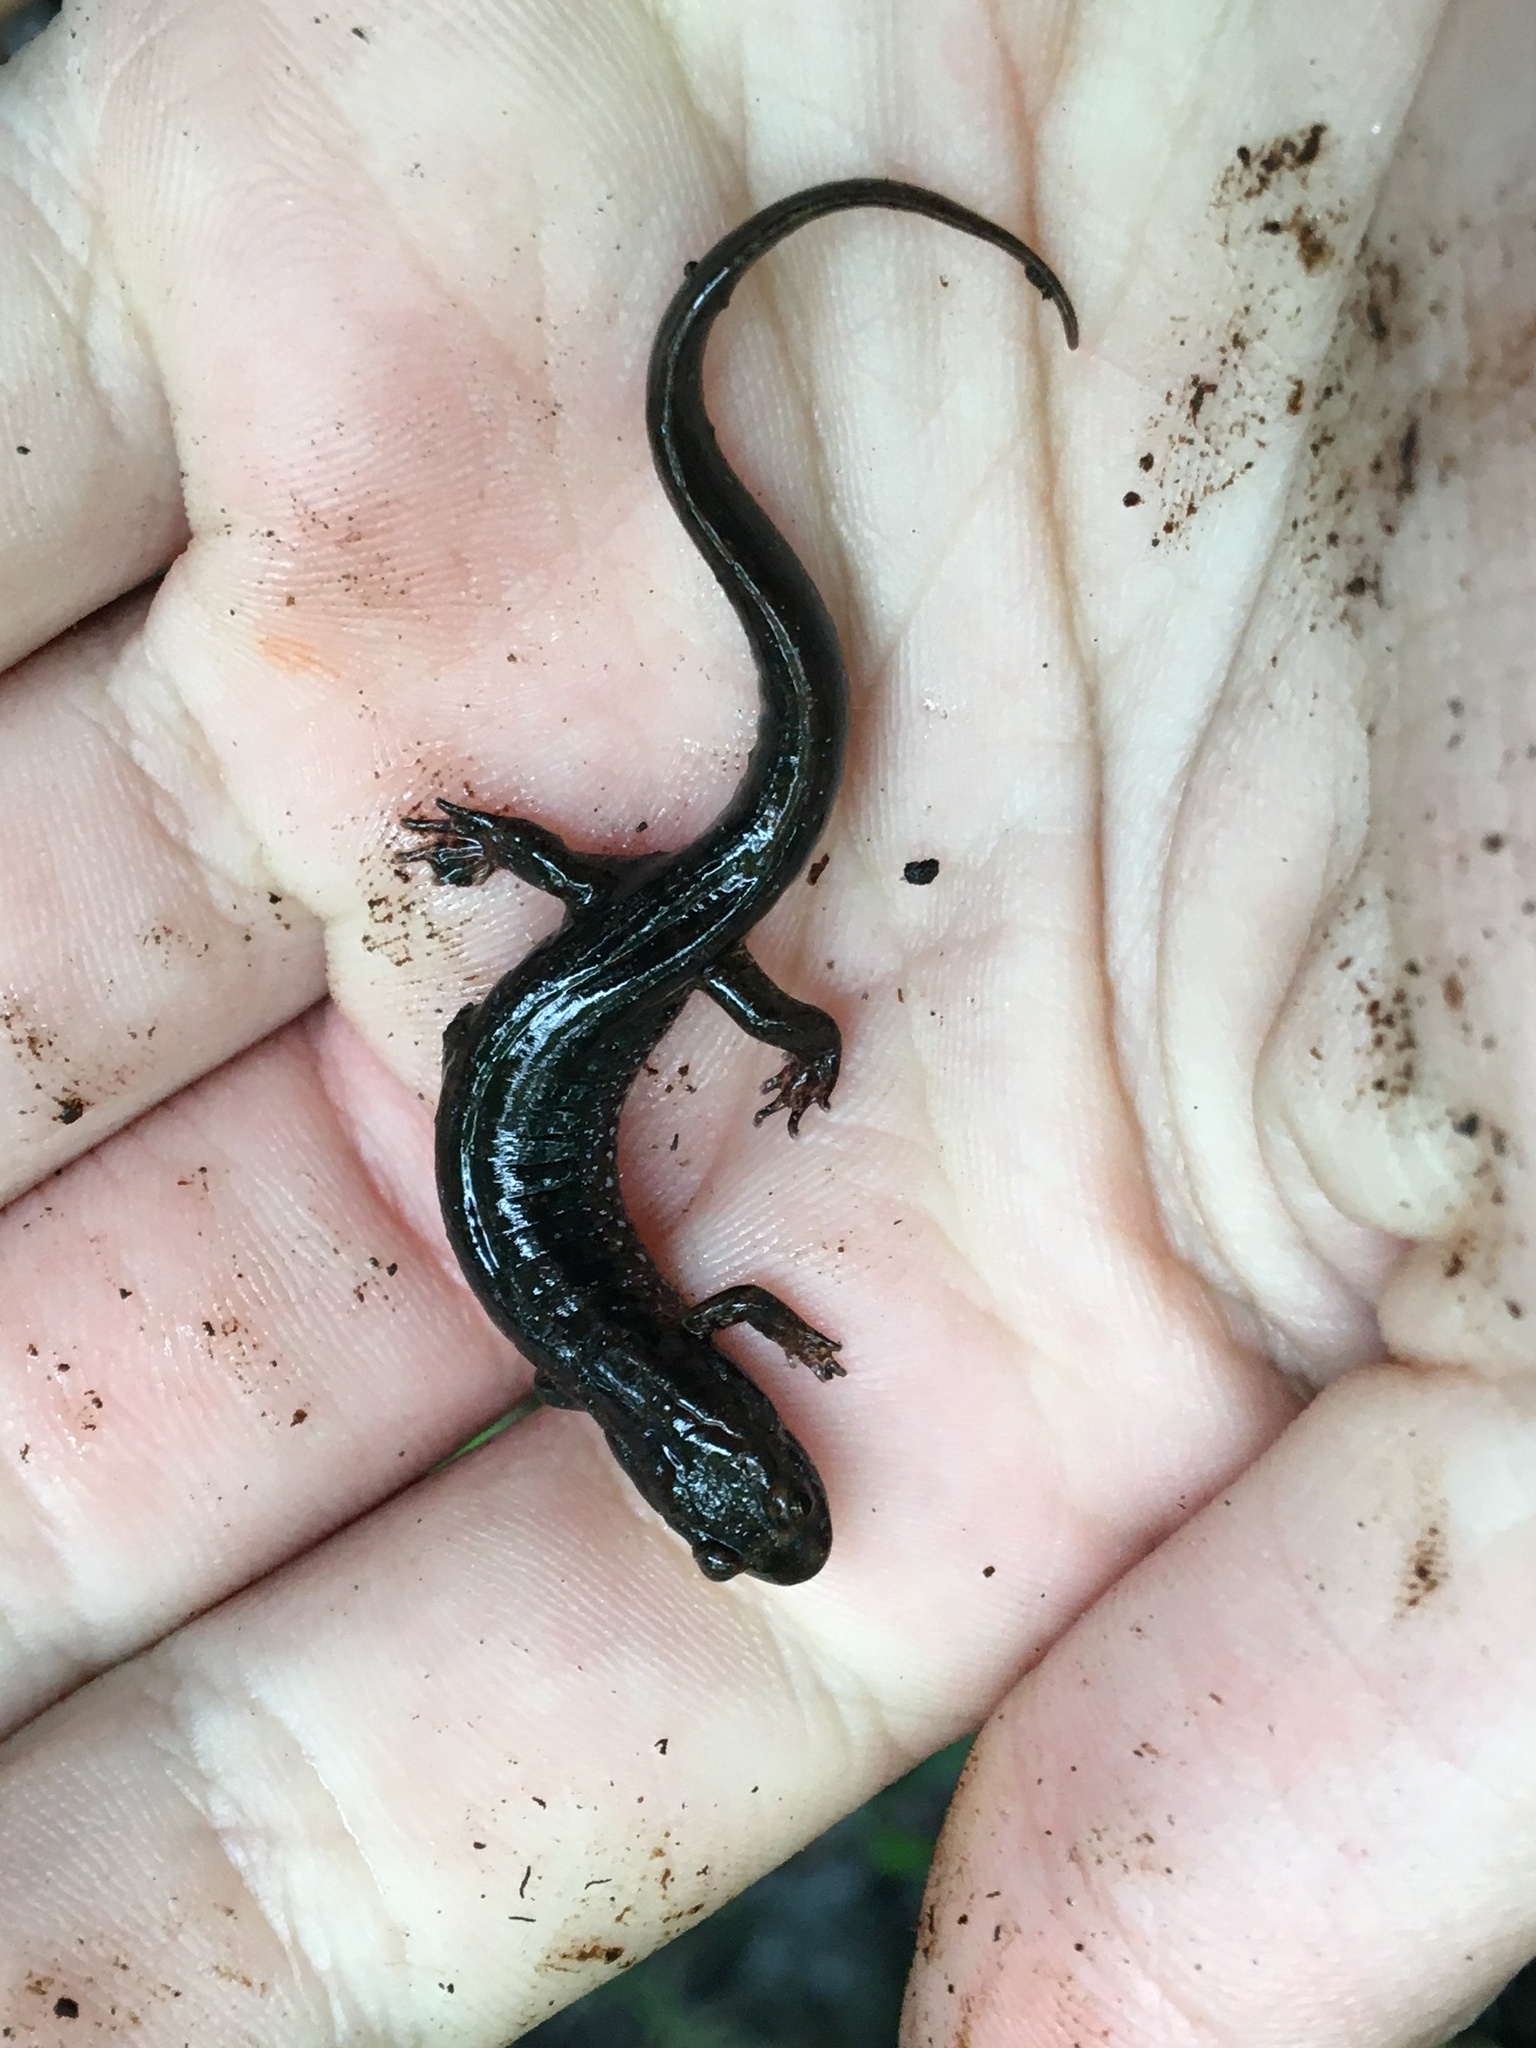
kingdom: Animalia
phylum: Chordata
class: Amphibia
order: Caudata
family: Plethodontidae
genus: Desmognathus
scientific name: Desmognathus fuscus
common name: Northern dusky salamander
